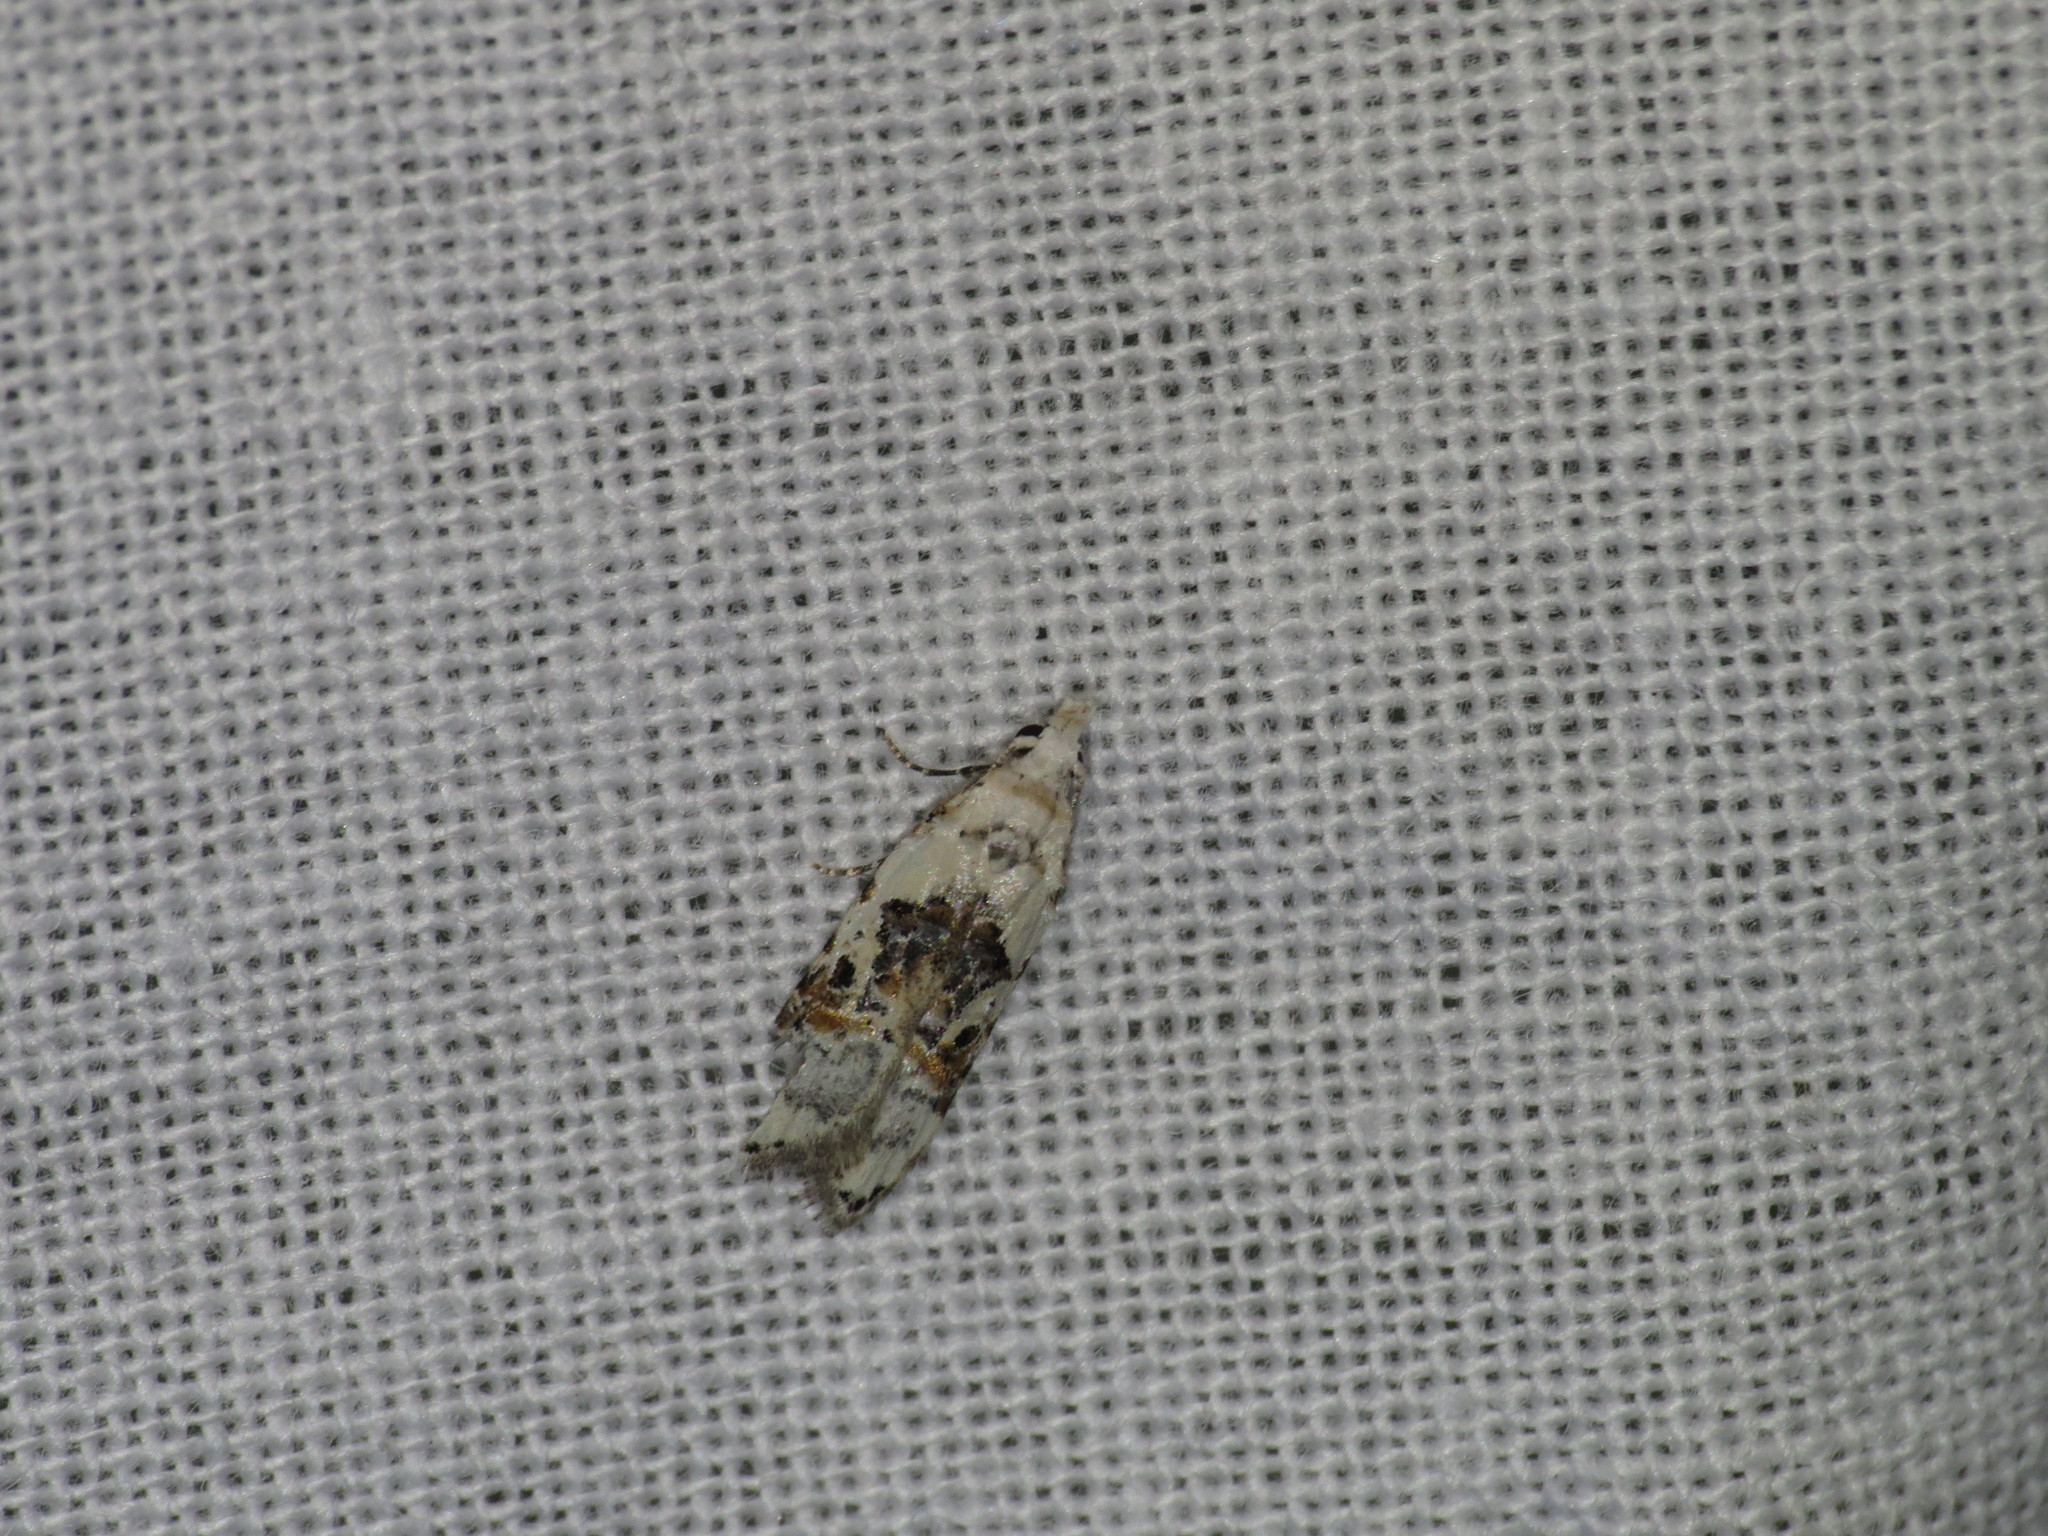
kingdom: Animalia
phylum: Arthropoda
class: Insecta
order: Lepidoptera
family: Carposinidae
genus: Sosineura
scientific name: Sosineura mimica
